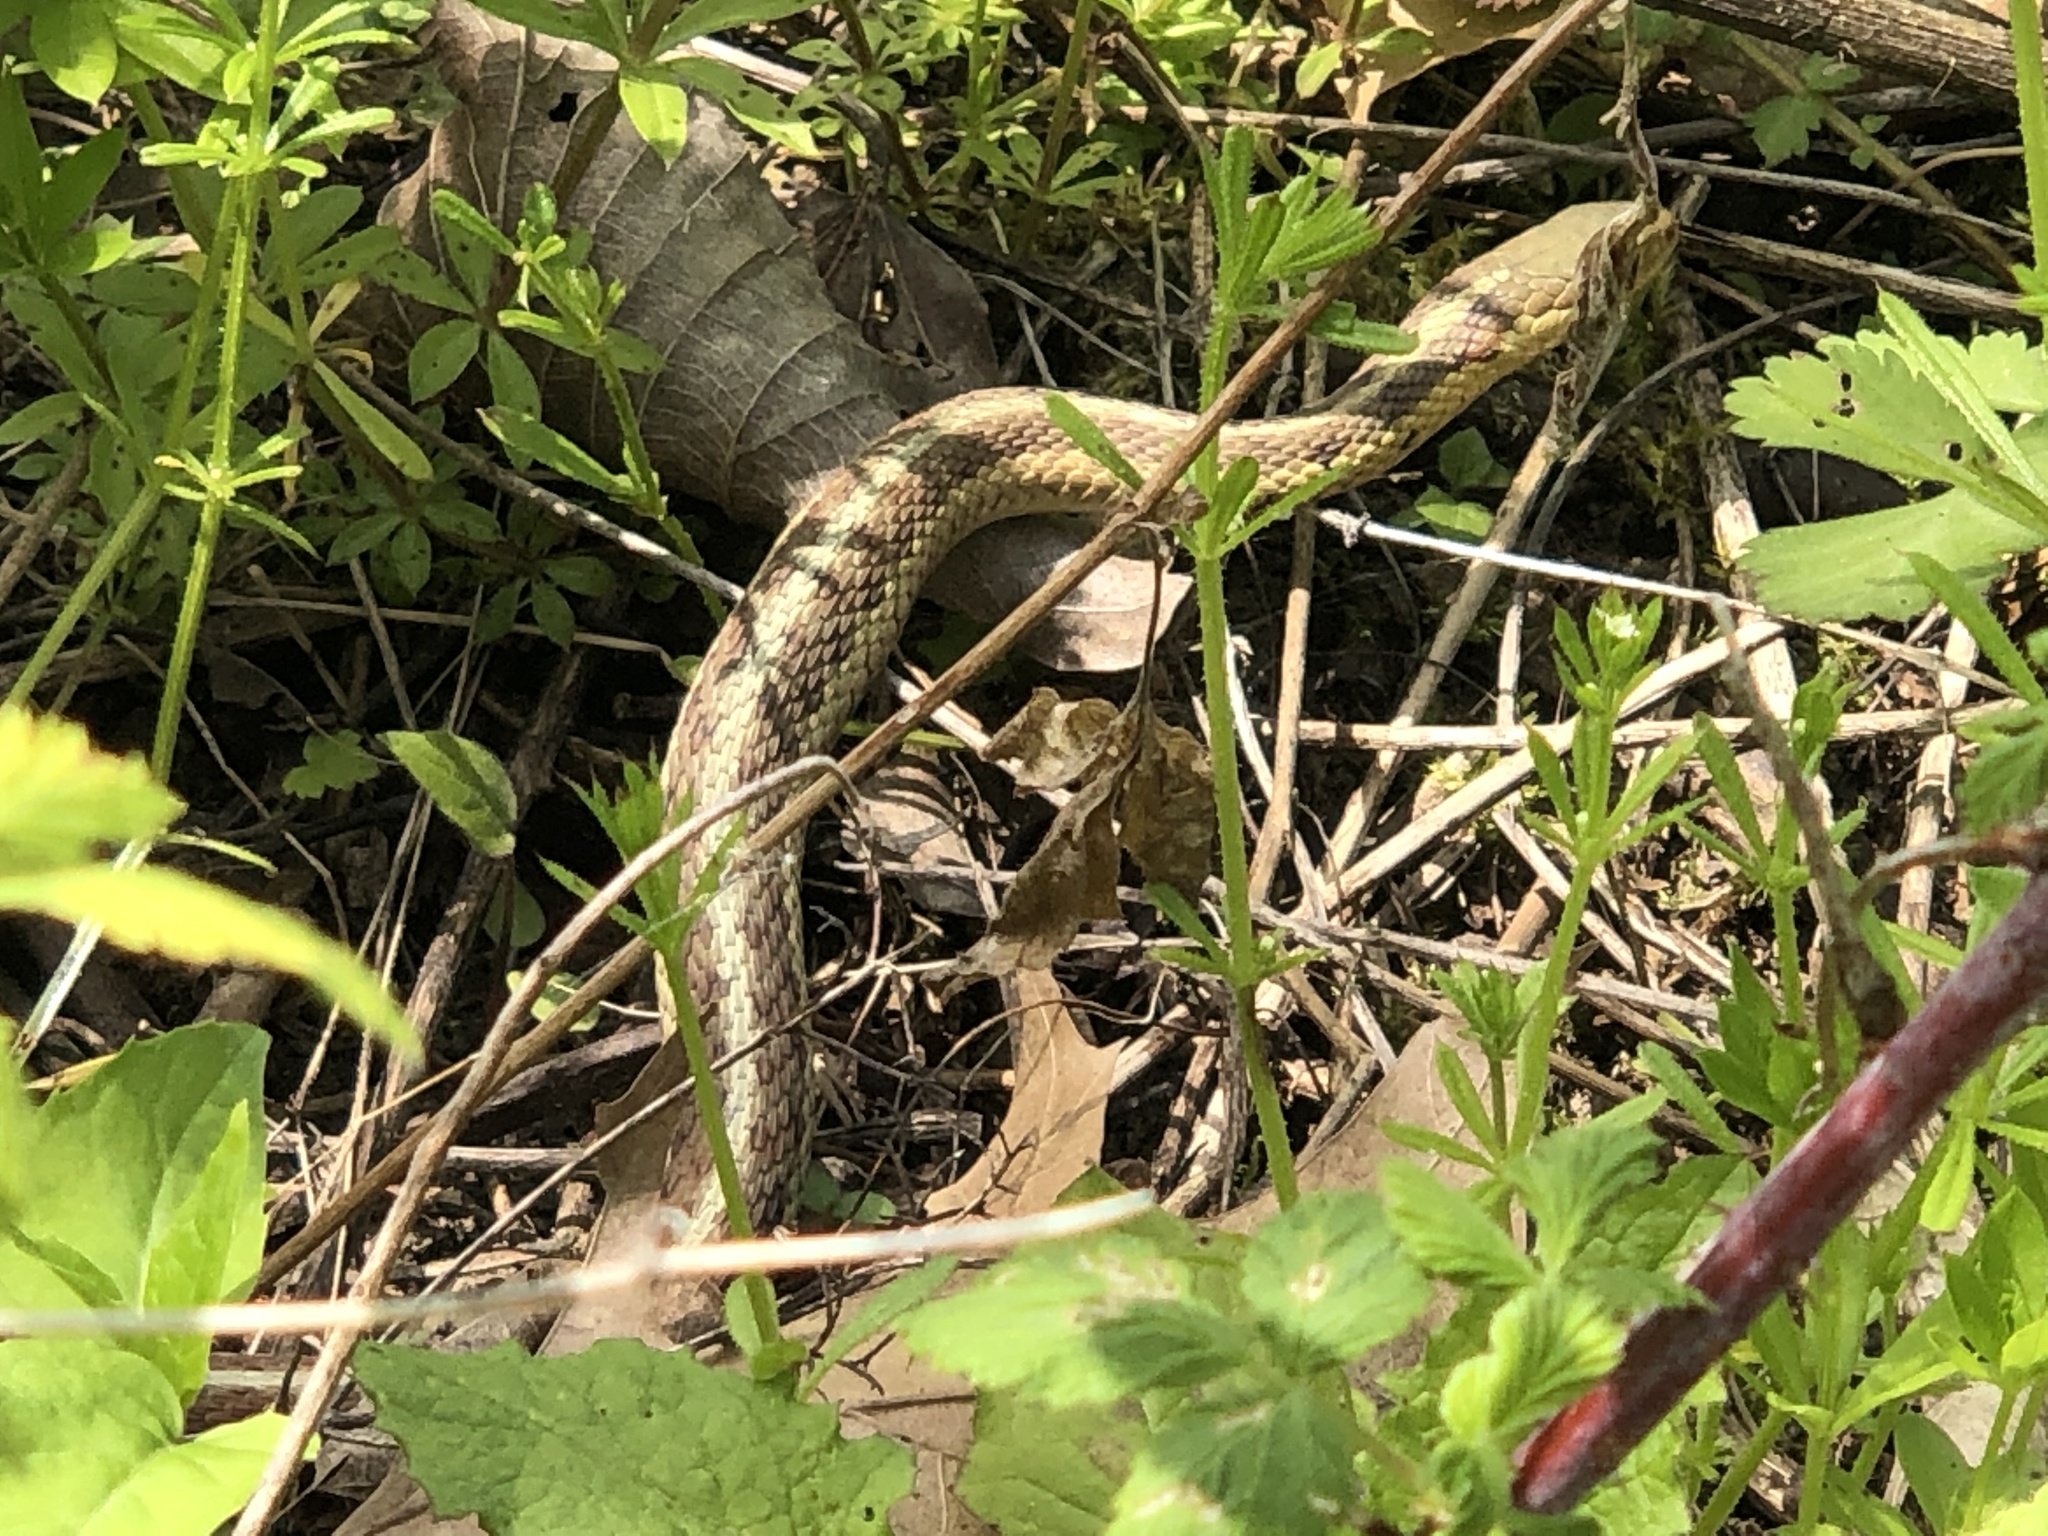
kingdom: Animalia
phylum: Chordata
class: Squamata
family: Colubridae
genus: Thamnophis
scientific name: Thamnophis sirtalis
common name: Common garter snake
